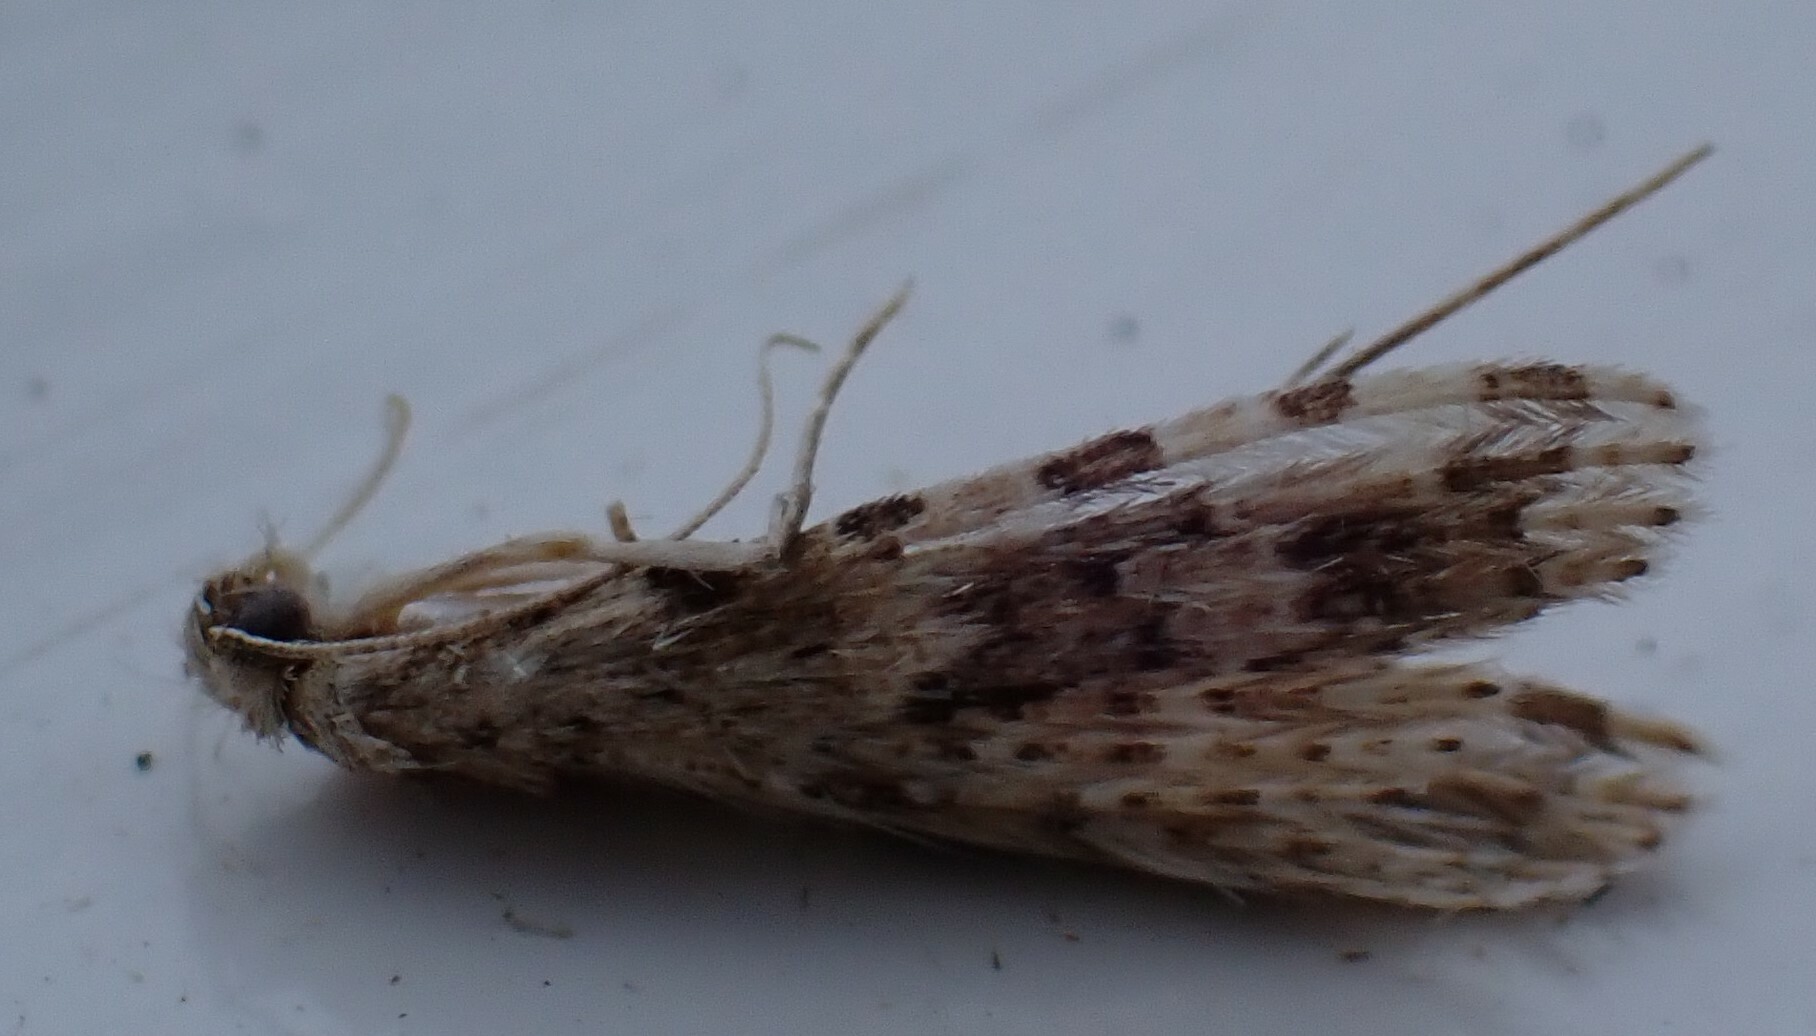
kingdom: Animalia
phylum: Arthropoda
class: Insecta
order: Lepidoptera
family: Alucitidae
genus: Alucita
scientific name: Alucita hexadactyla
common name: Twenty-plume moth
